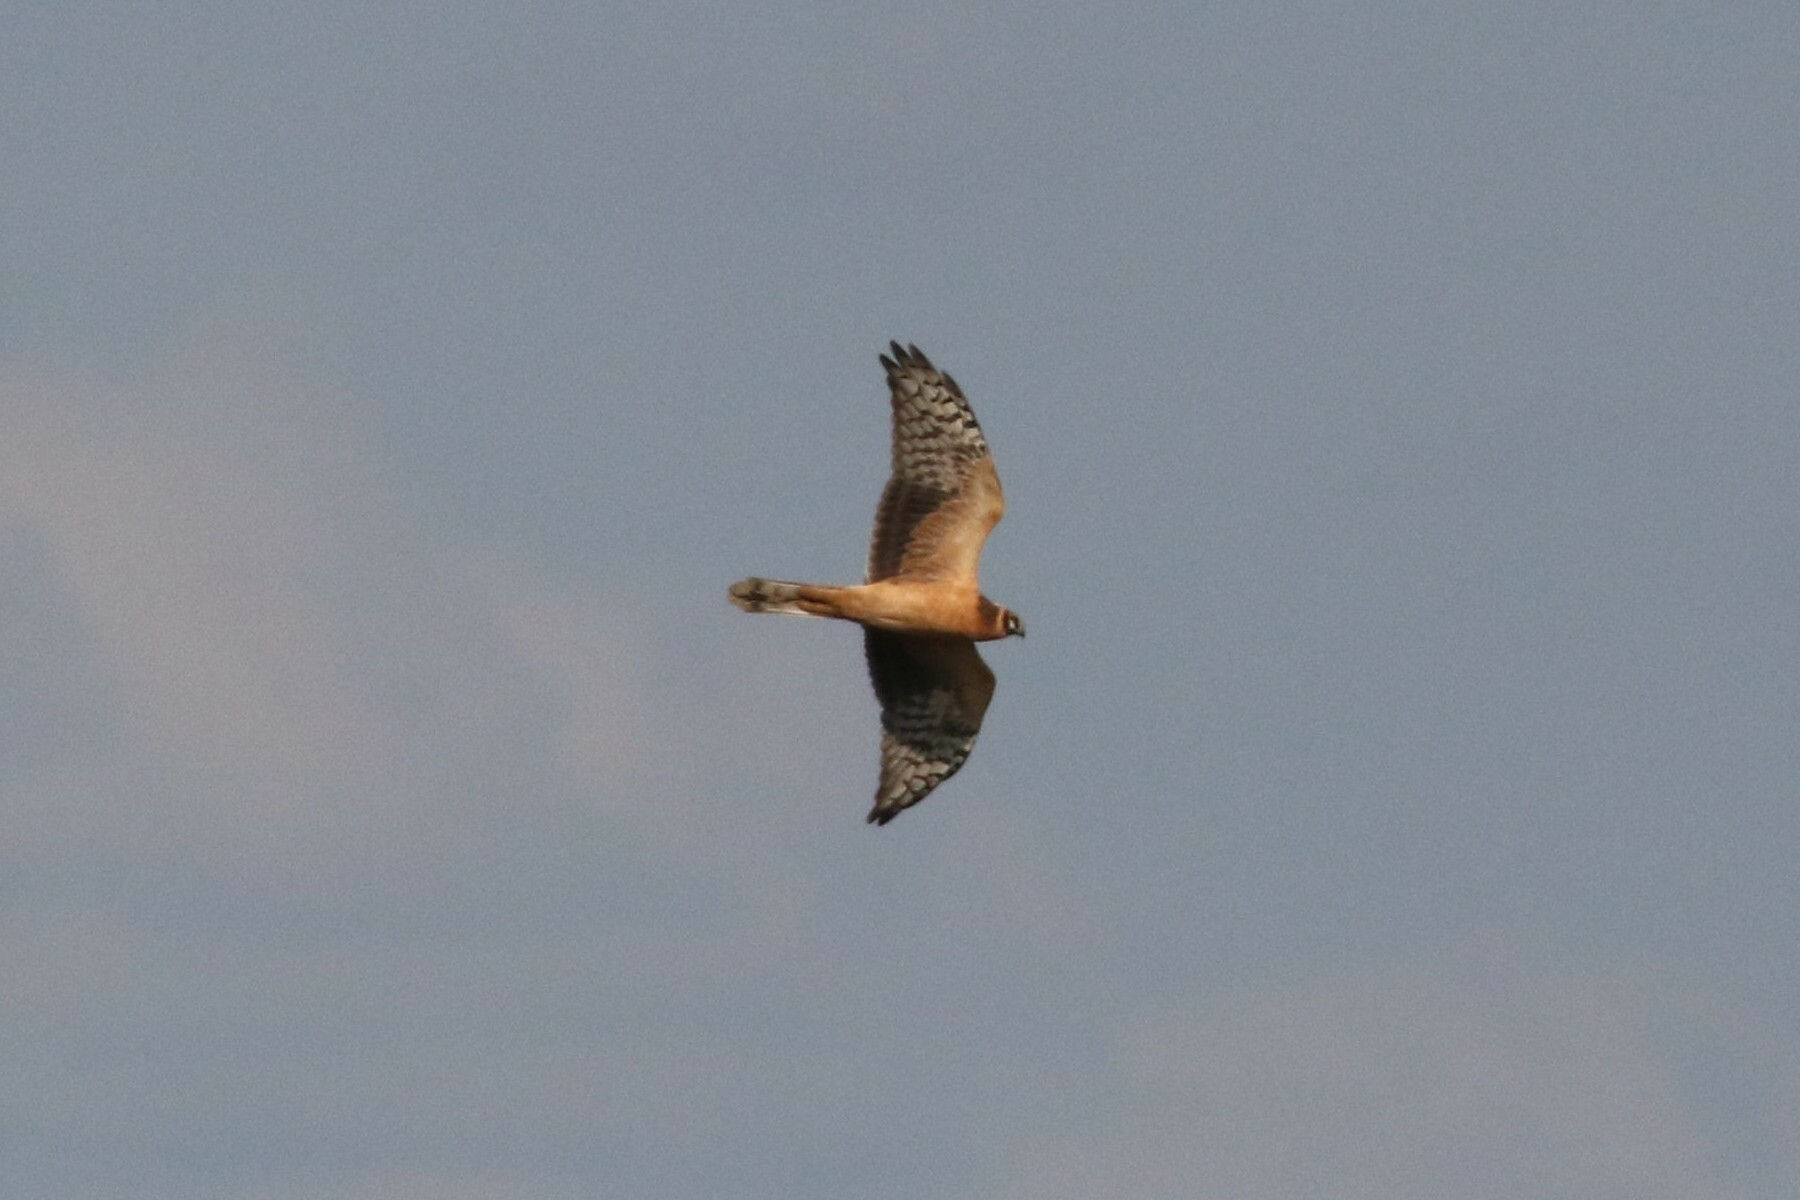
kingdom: Animalia
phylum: Chordata
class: Aves
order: Accipitriformes
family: Accipitridae
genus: Circus
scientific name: Circus macrourus
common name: Pallid harrier
